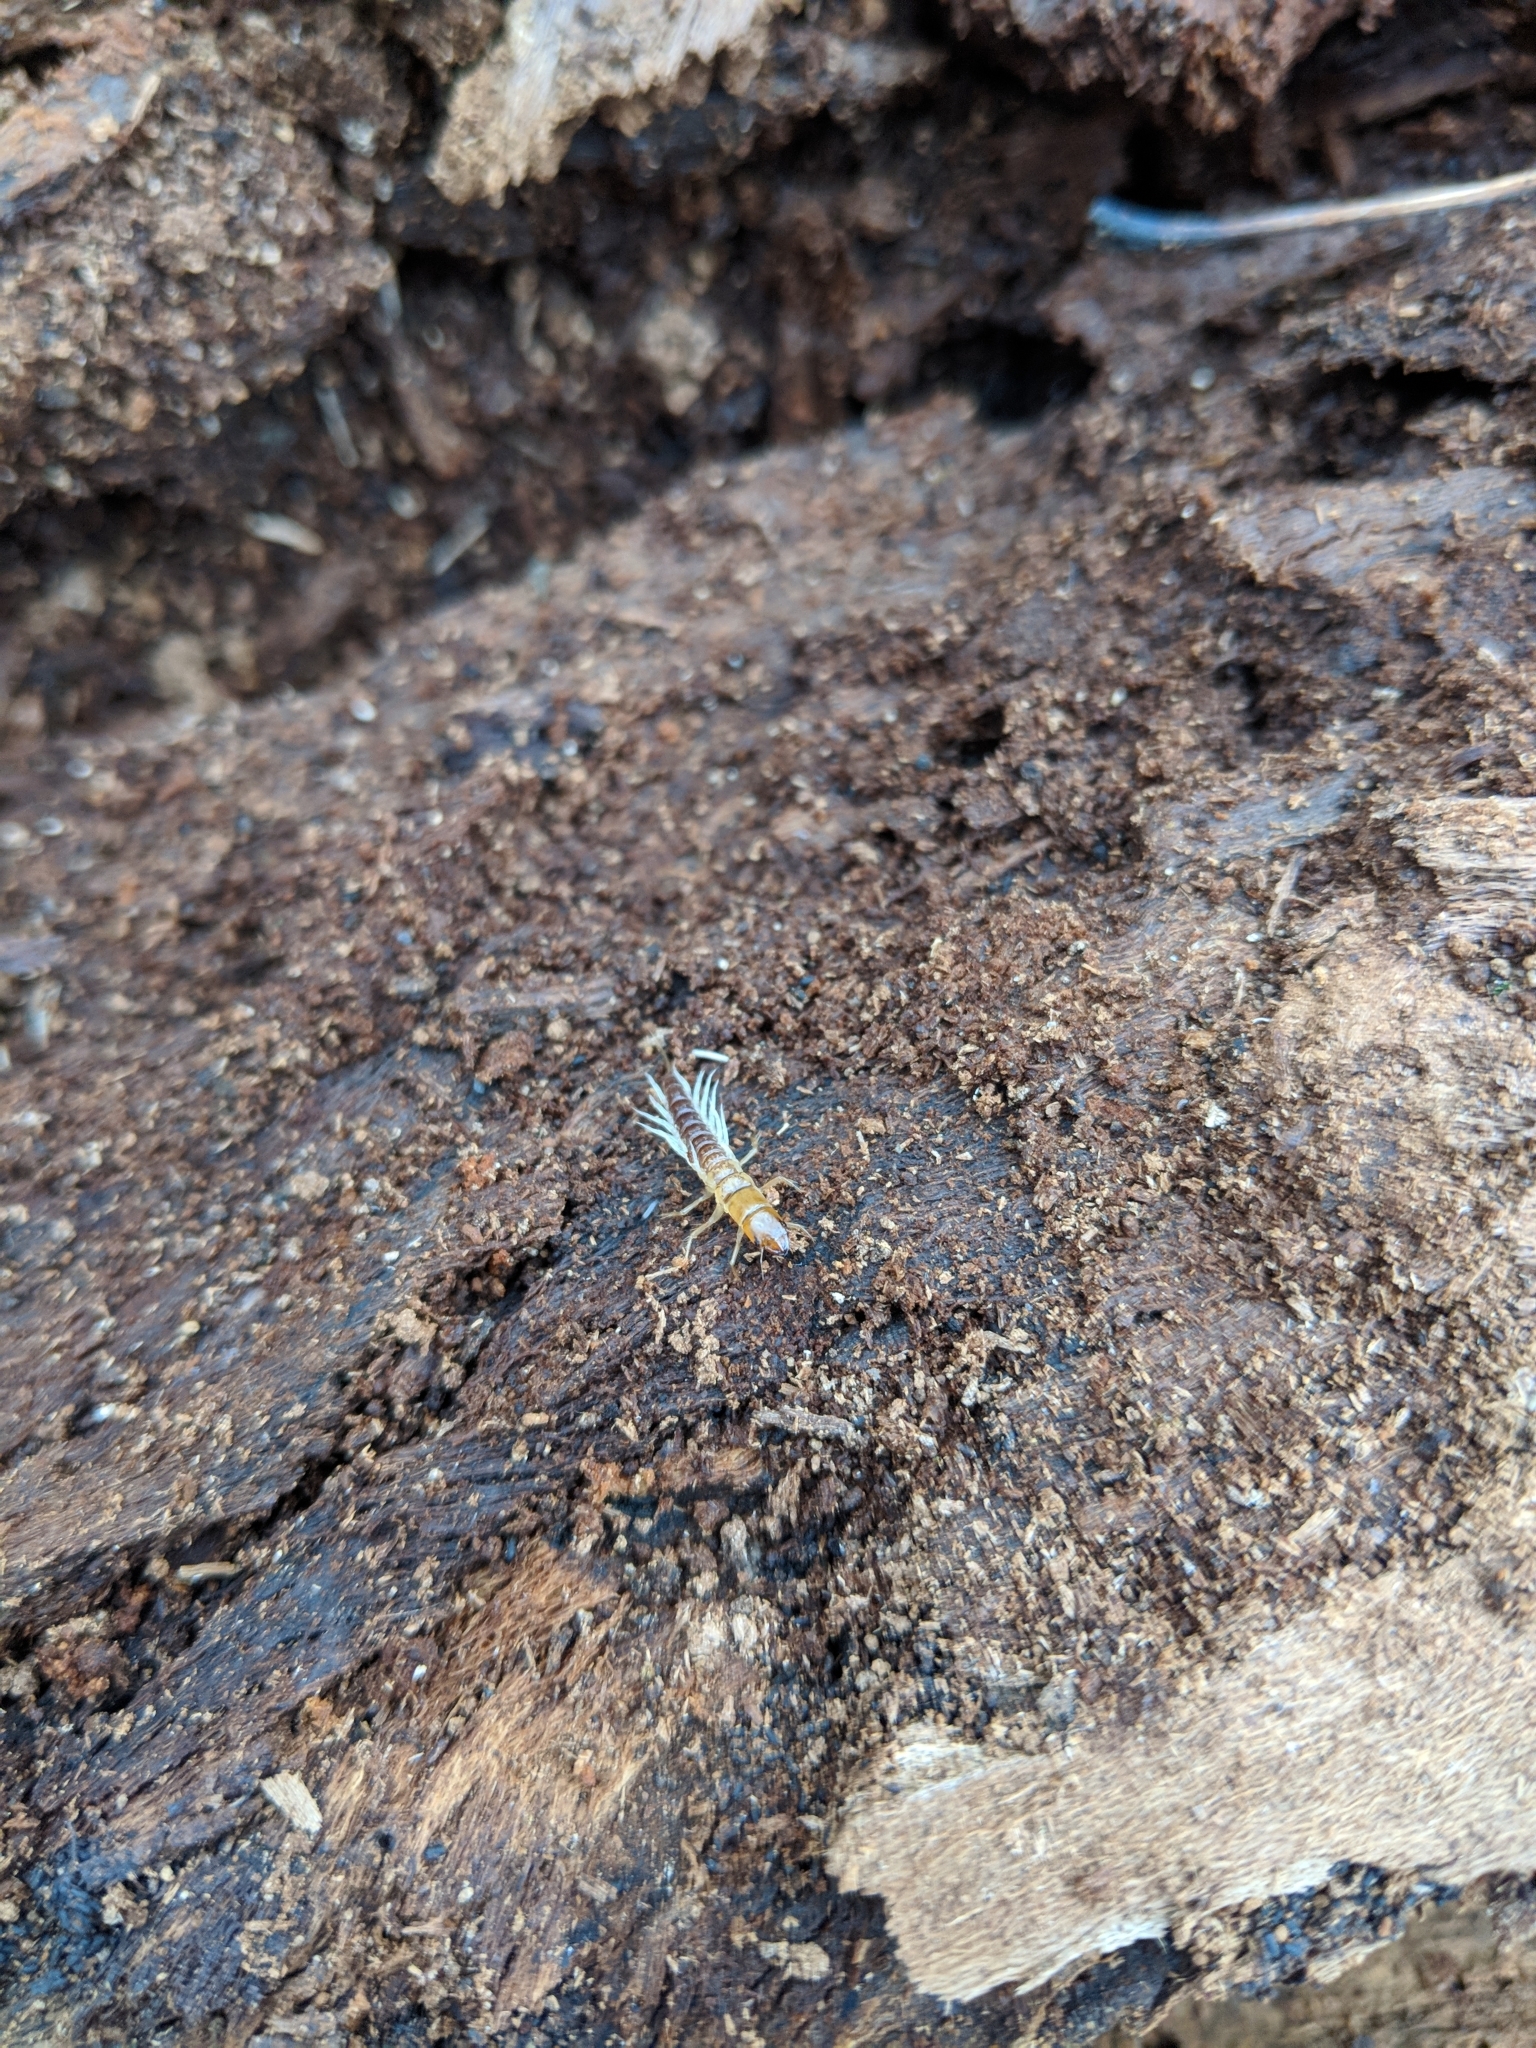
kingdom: Animalia
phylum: Arthropoda
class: Insecta
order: Megaloptera
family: Sialidae
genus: Sialis
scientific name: Sialis
